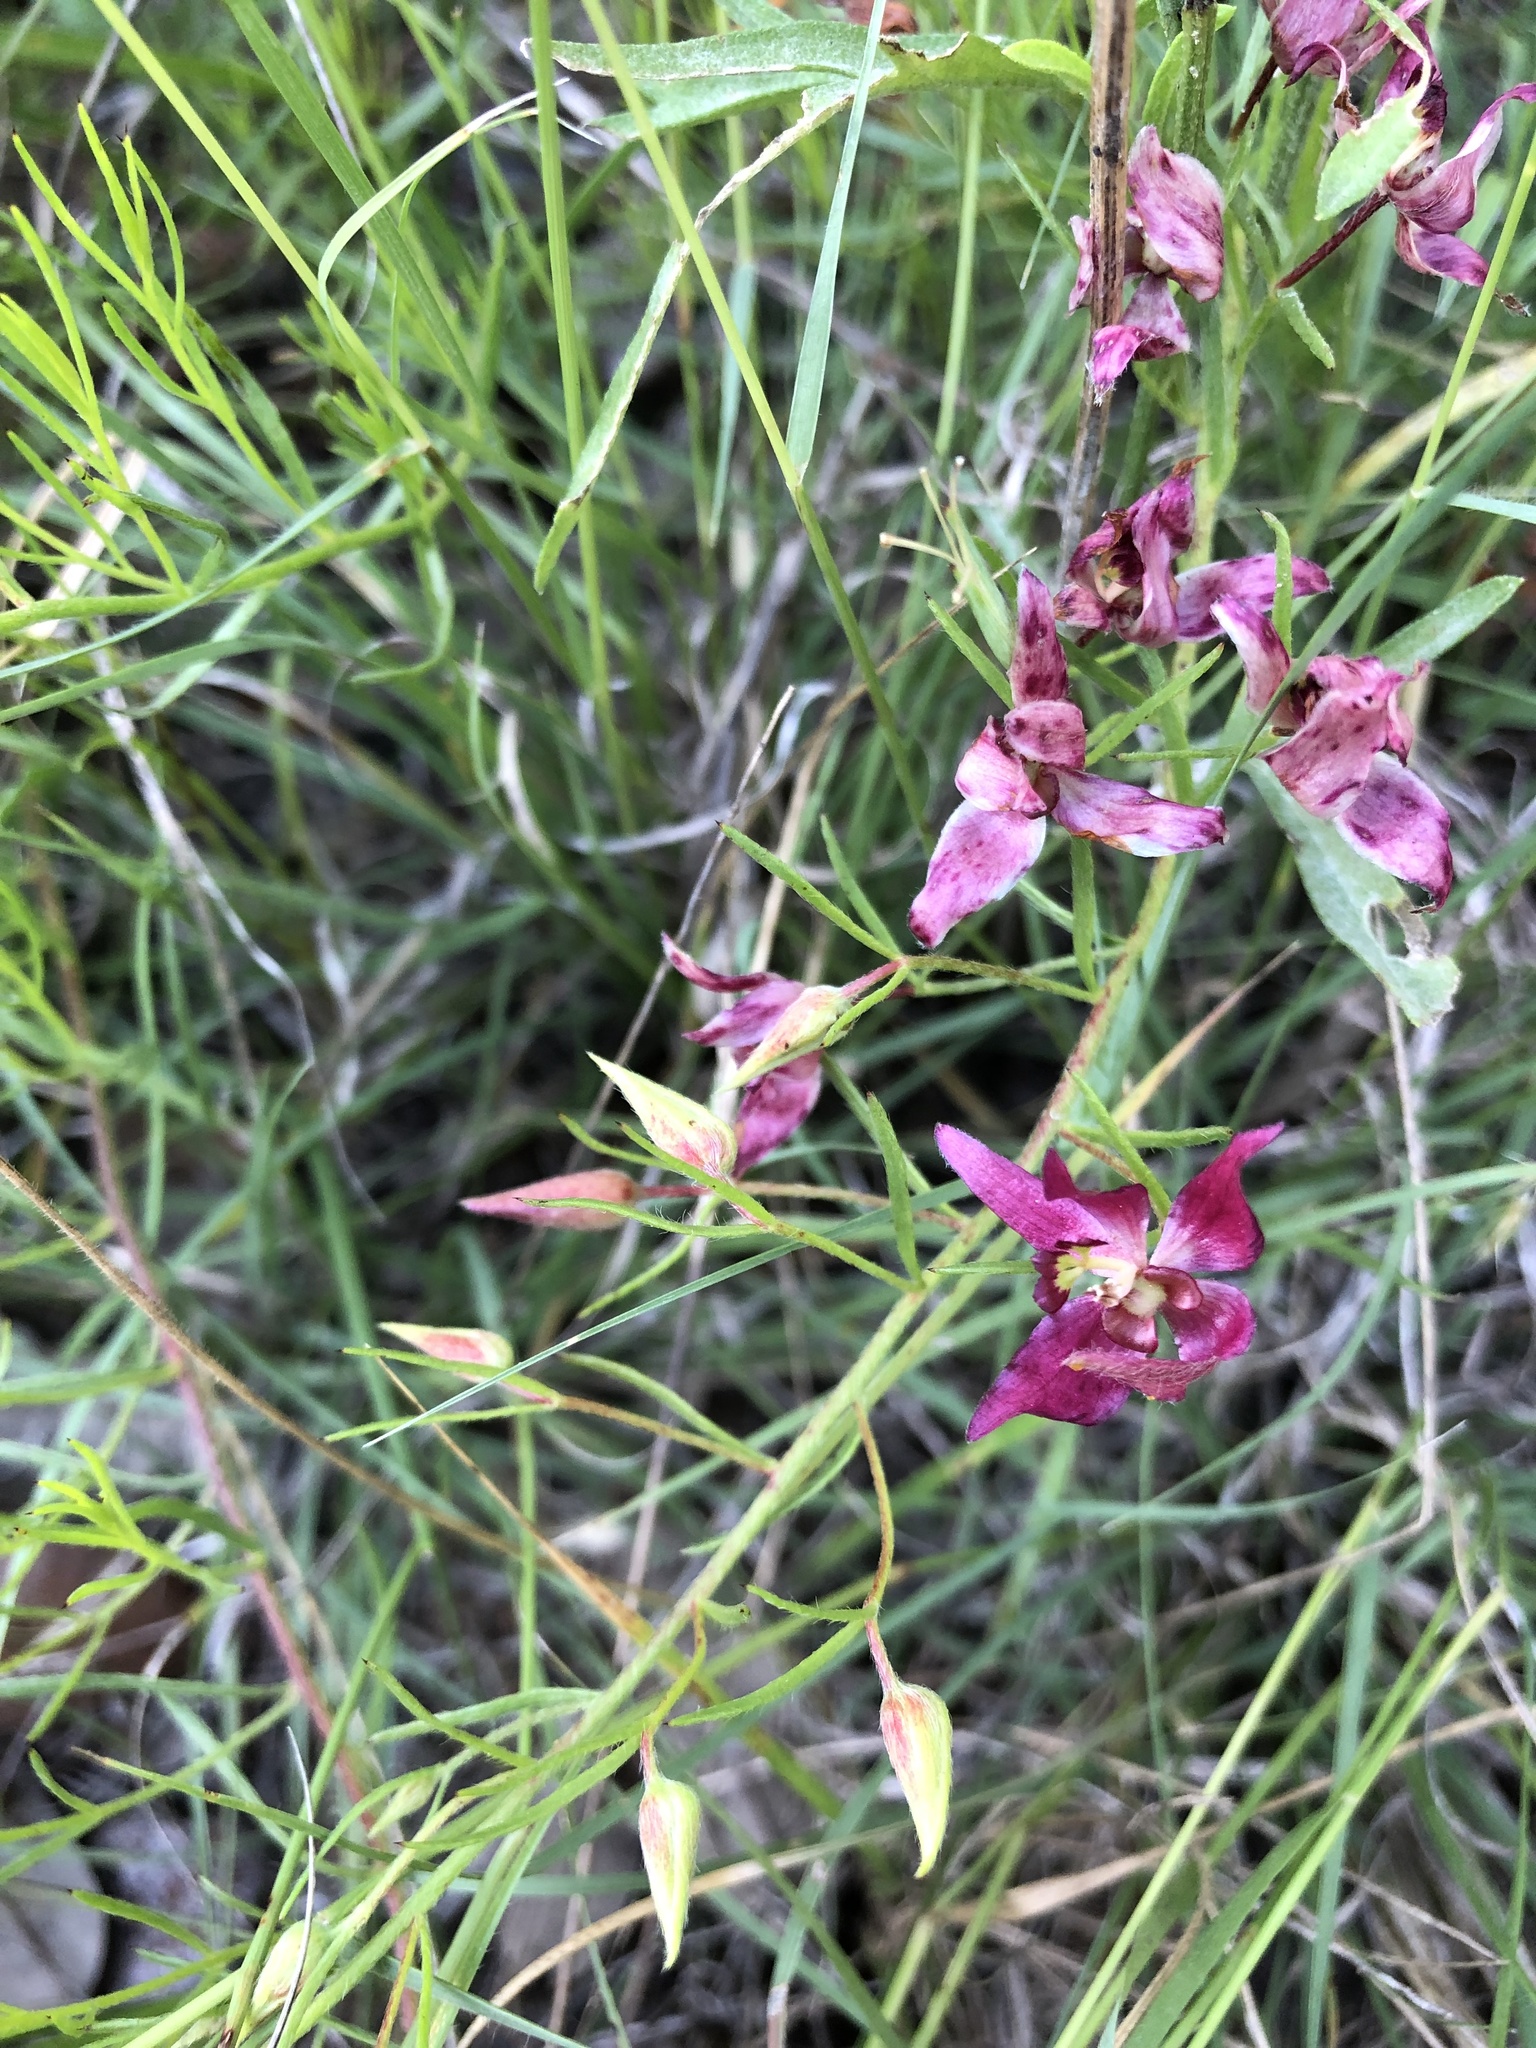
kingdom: Plantae
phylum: Tracheophyta
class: Magnoliopsida
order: Zygophyllales
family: Krameriaceae
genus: Krameria
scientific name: Krameria lanceolata
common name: Ratany
